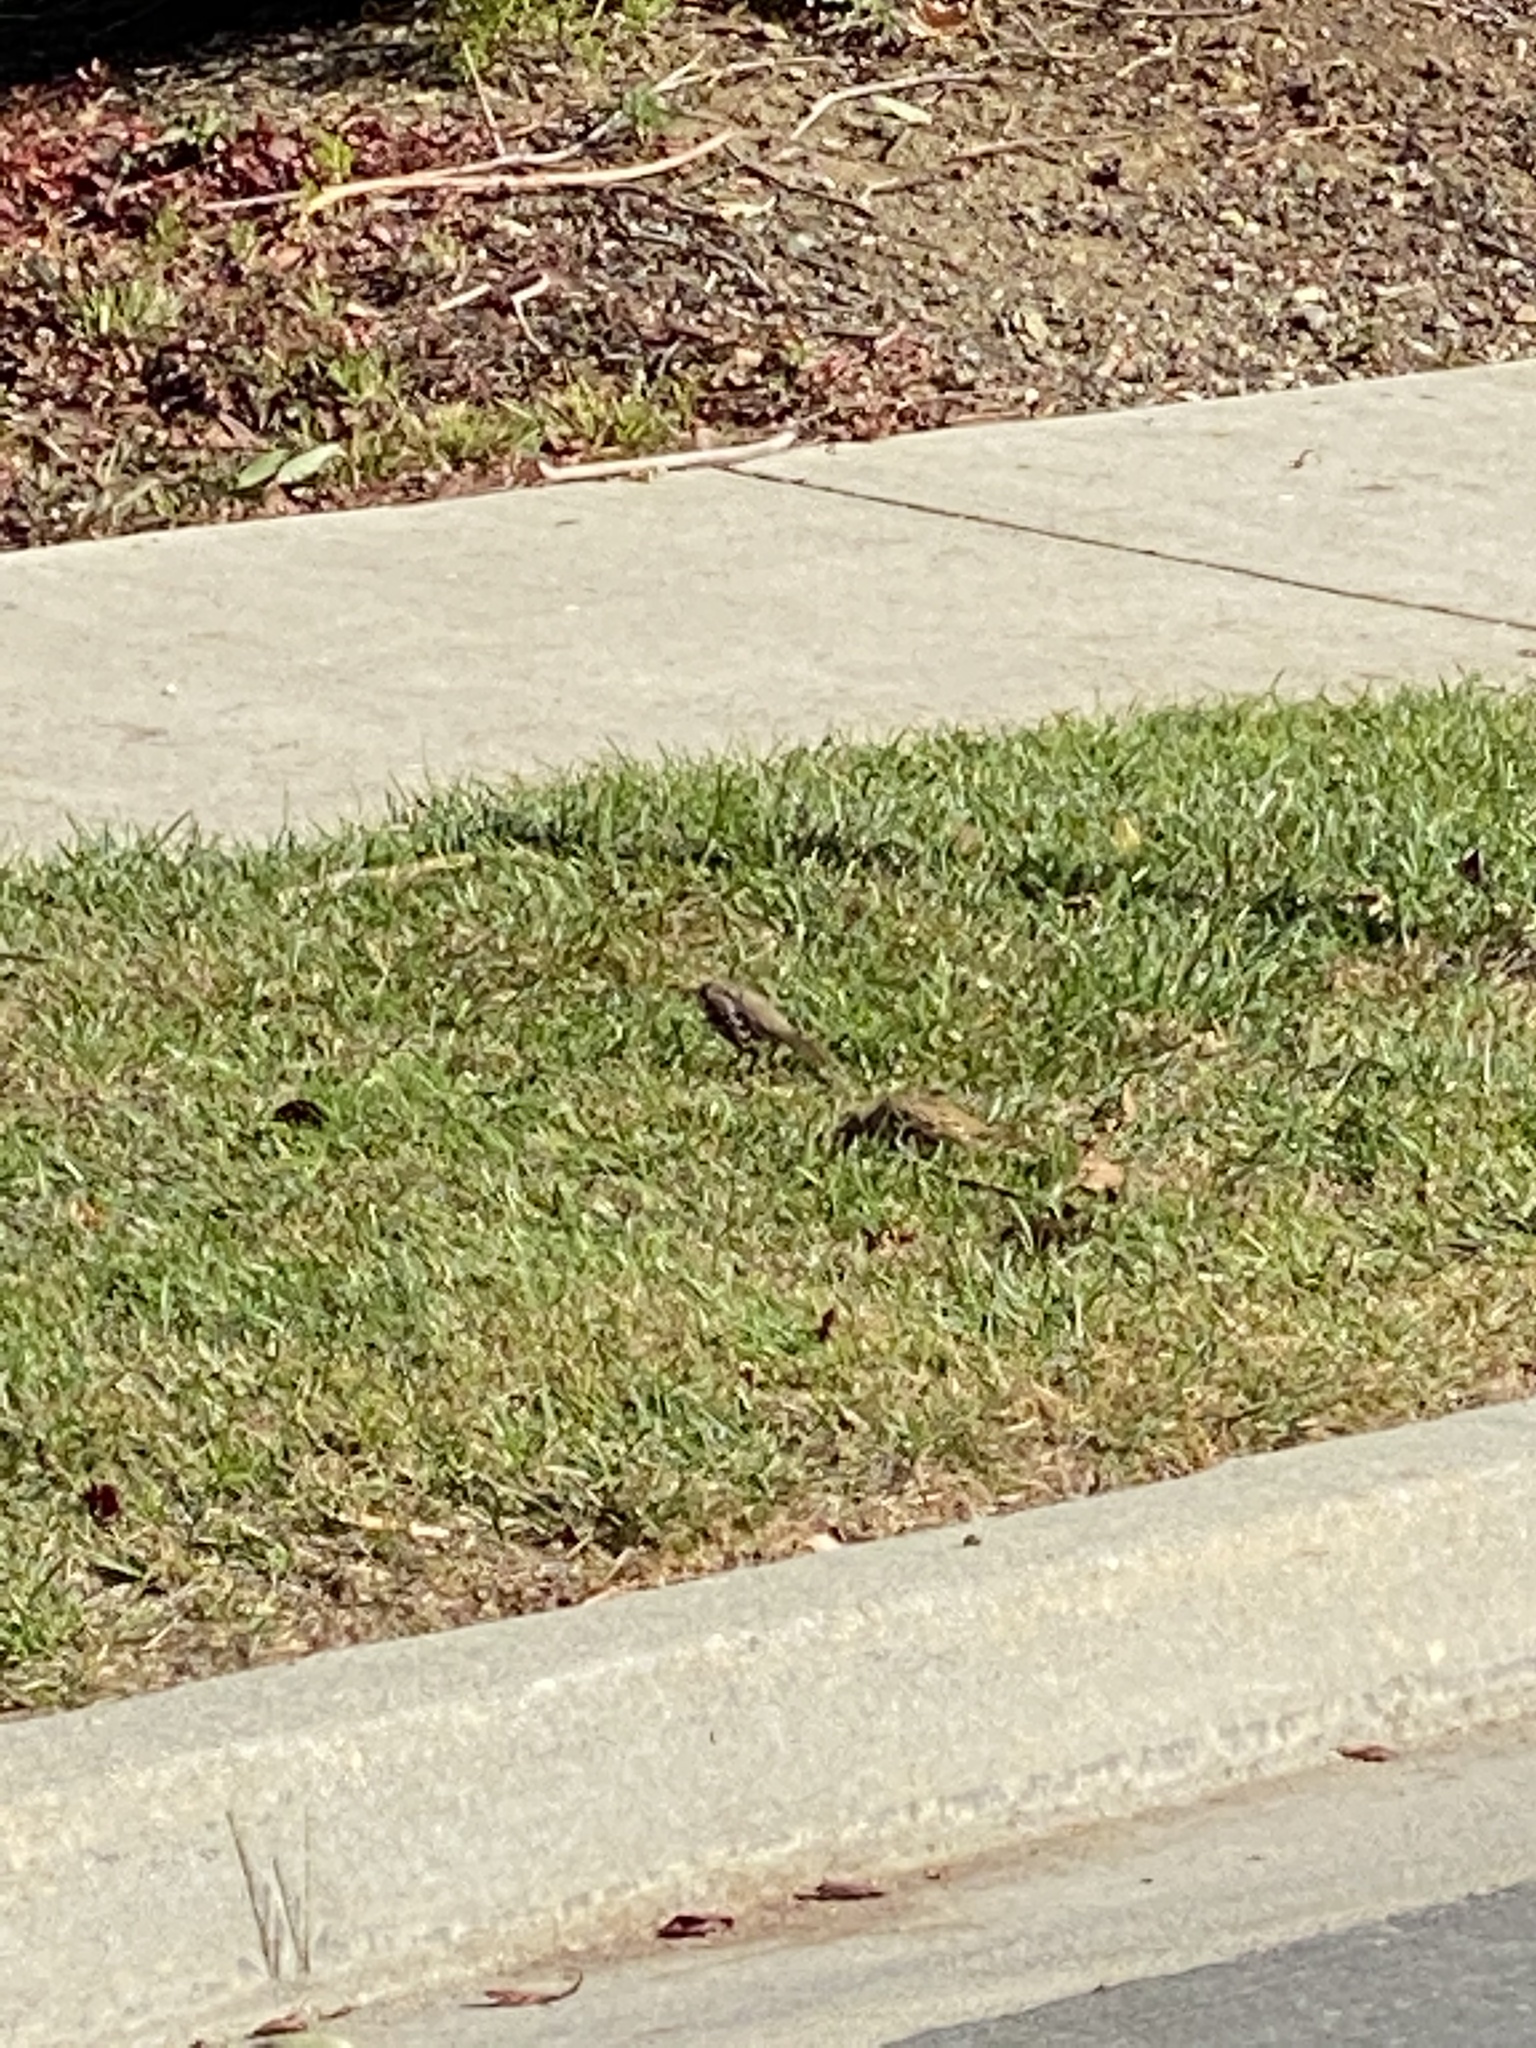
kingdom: Animalia
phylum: Chordata
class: Aves
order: Passeriformes
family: Passerellidae
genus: Zonotrichia
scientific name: Zonotrichia
